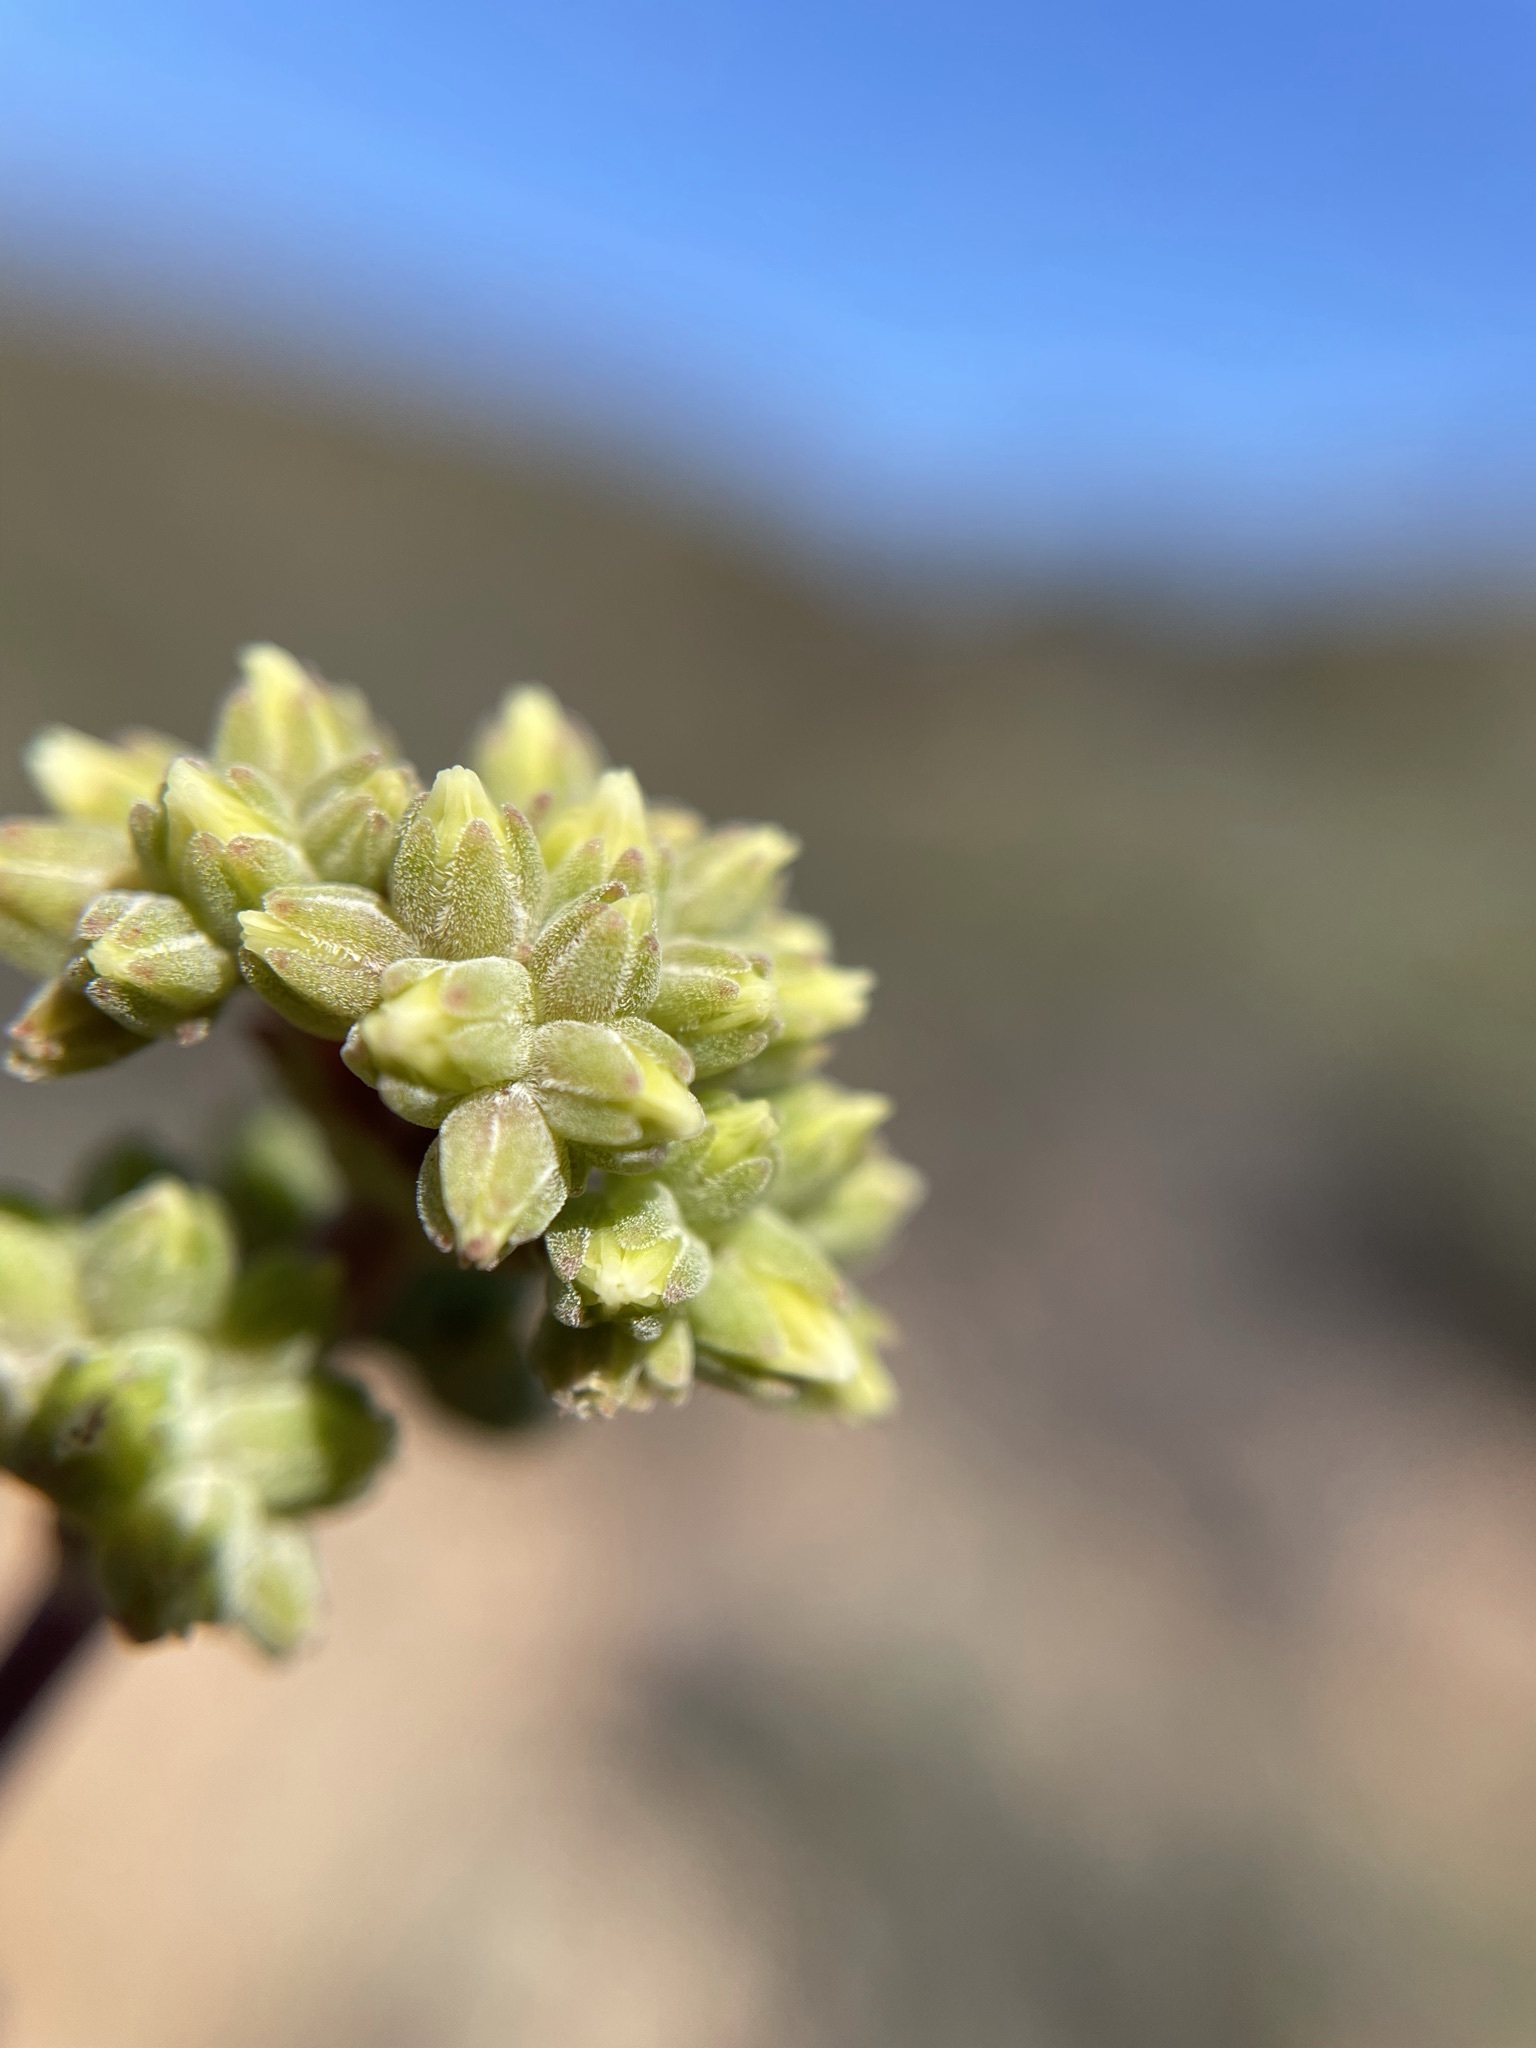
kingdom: Plantae
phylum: Tracheophyta
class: Magnoliopsida
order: Saxifragales
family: Crassulaceae
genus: Crassula
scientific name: Crassula subaphylla
